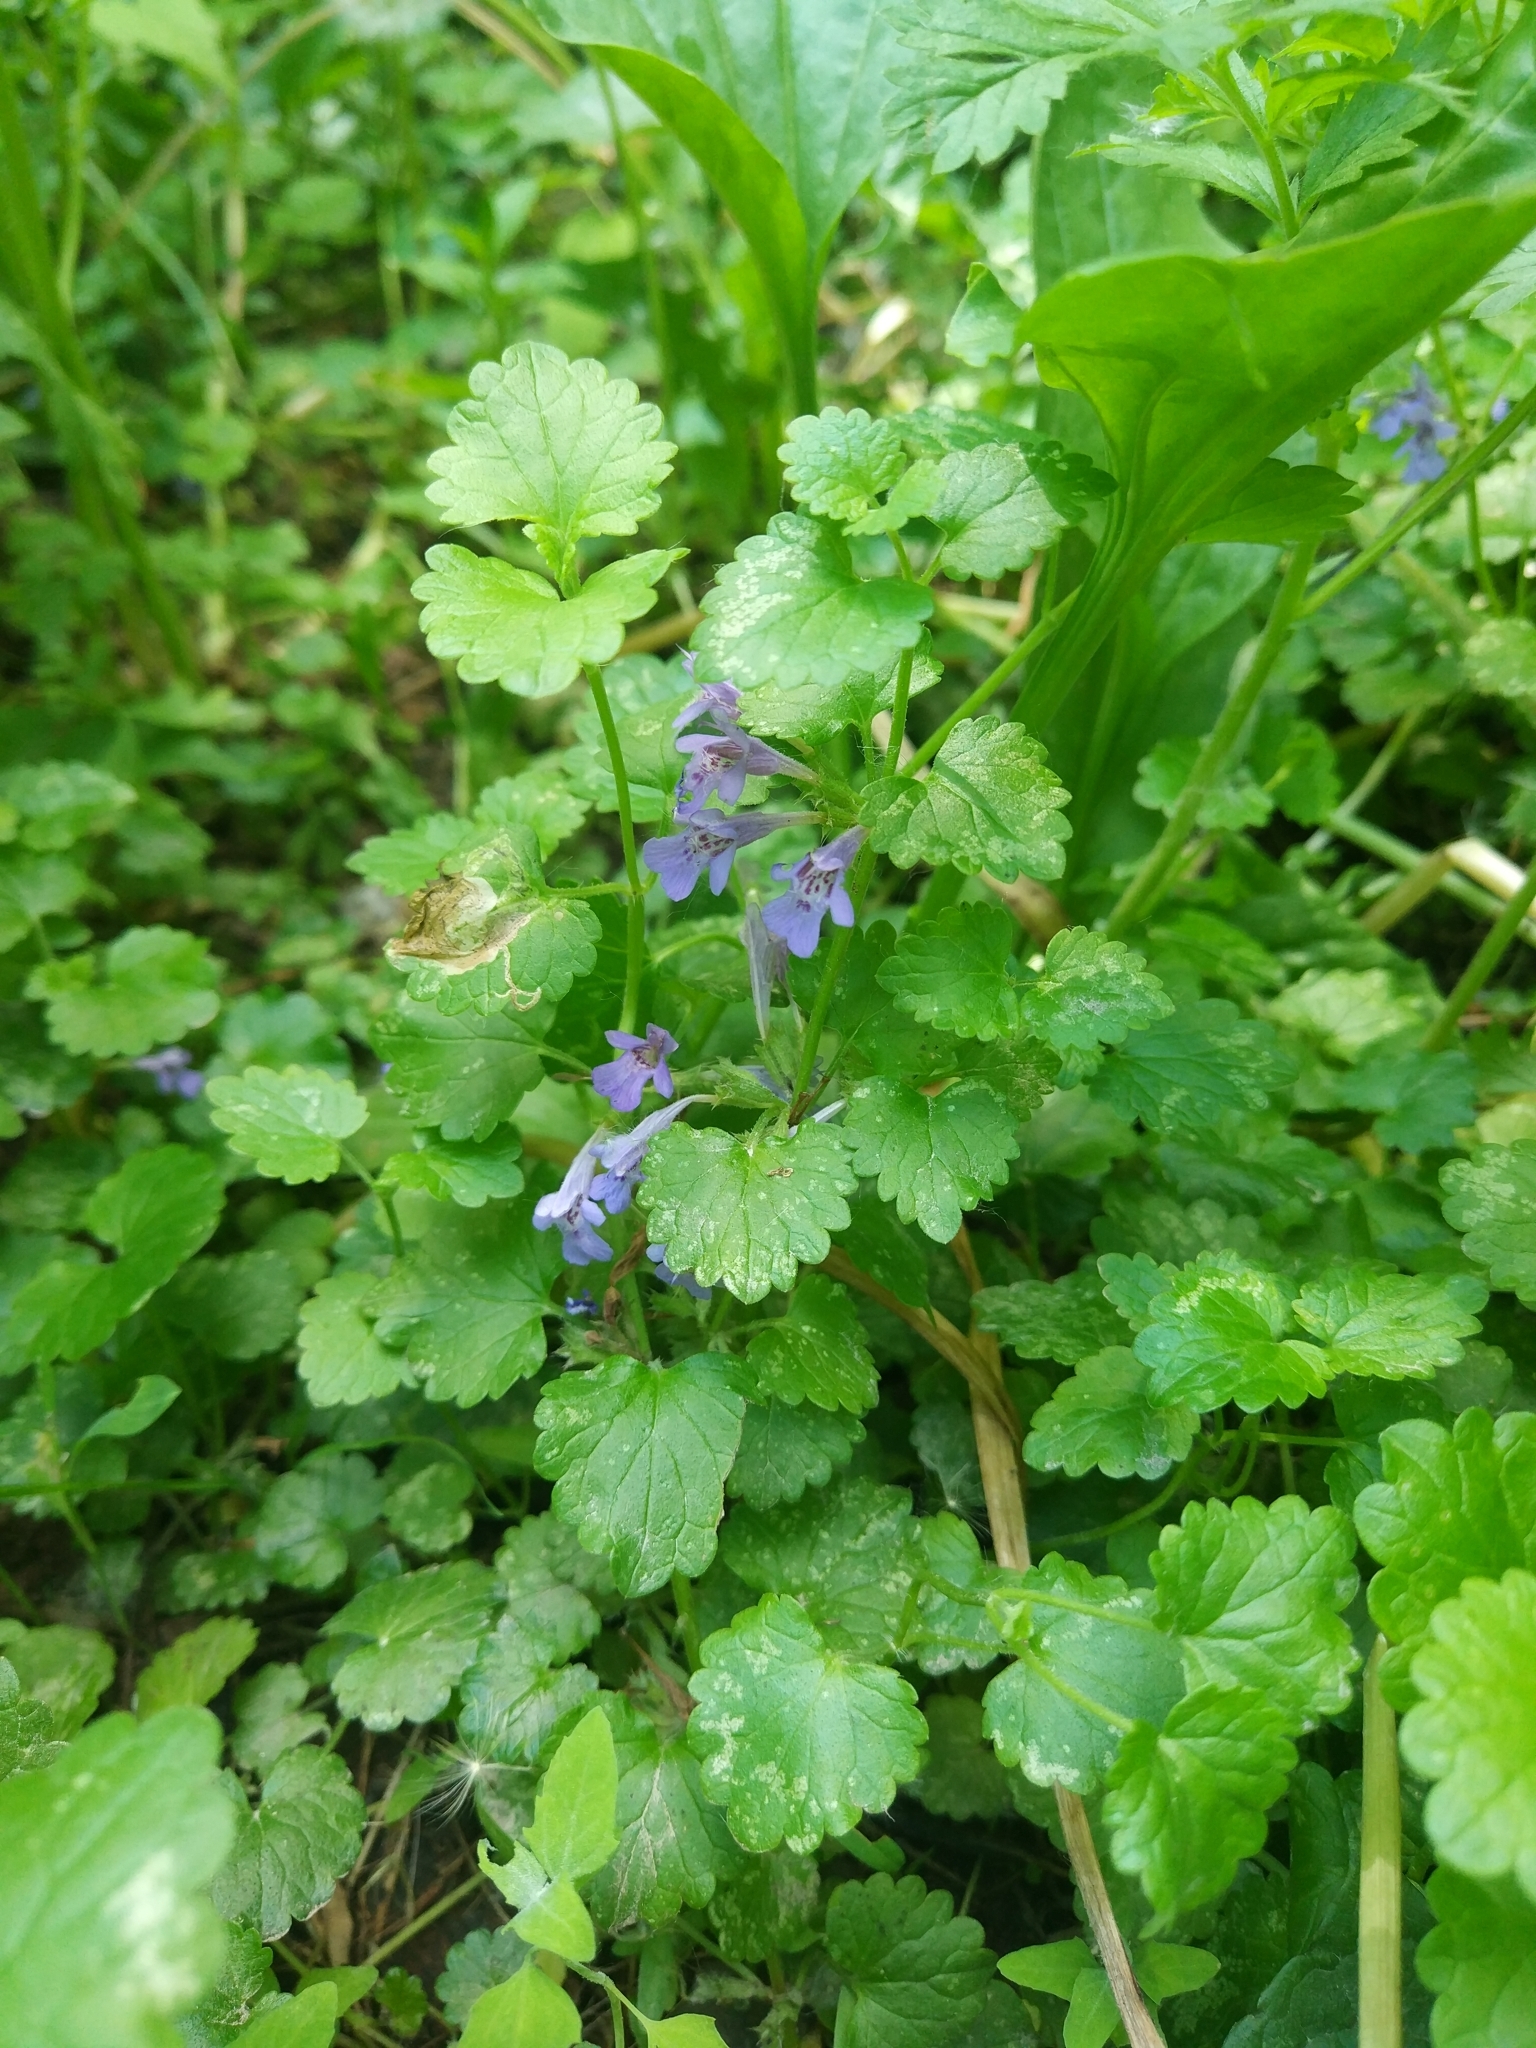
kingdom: Plantae
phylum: Tracheophyta
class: Magnoliopsida
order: Lamiales
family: Lamiaceae
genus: Glechoma
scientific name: Glechoma hederacea
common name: Ground ivy
